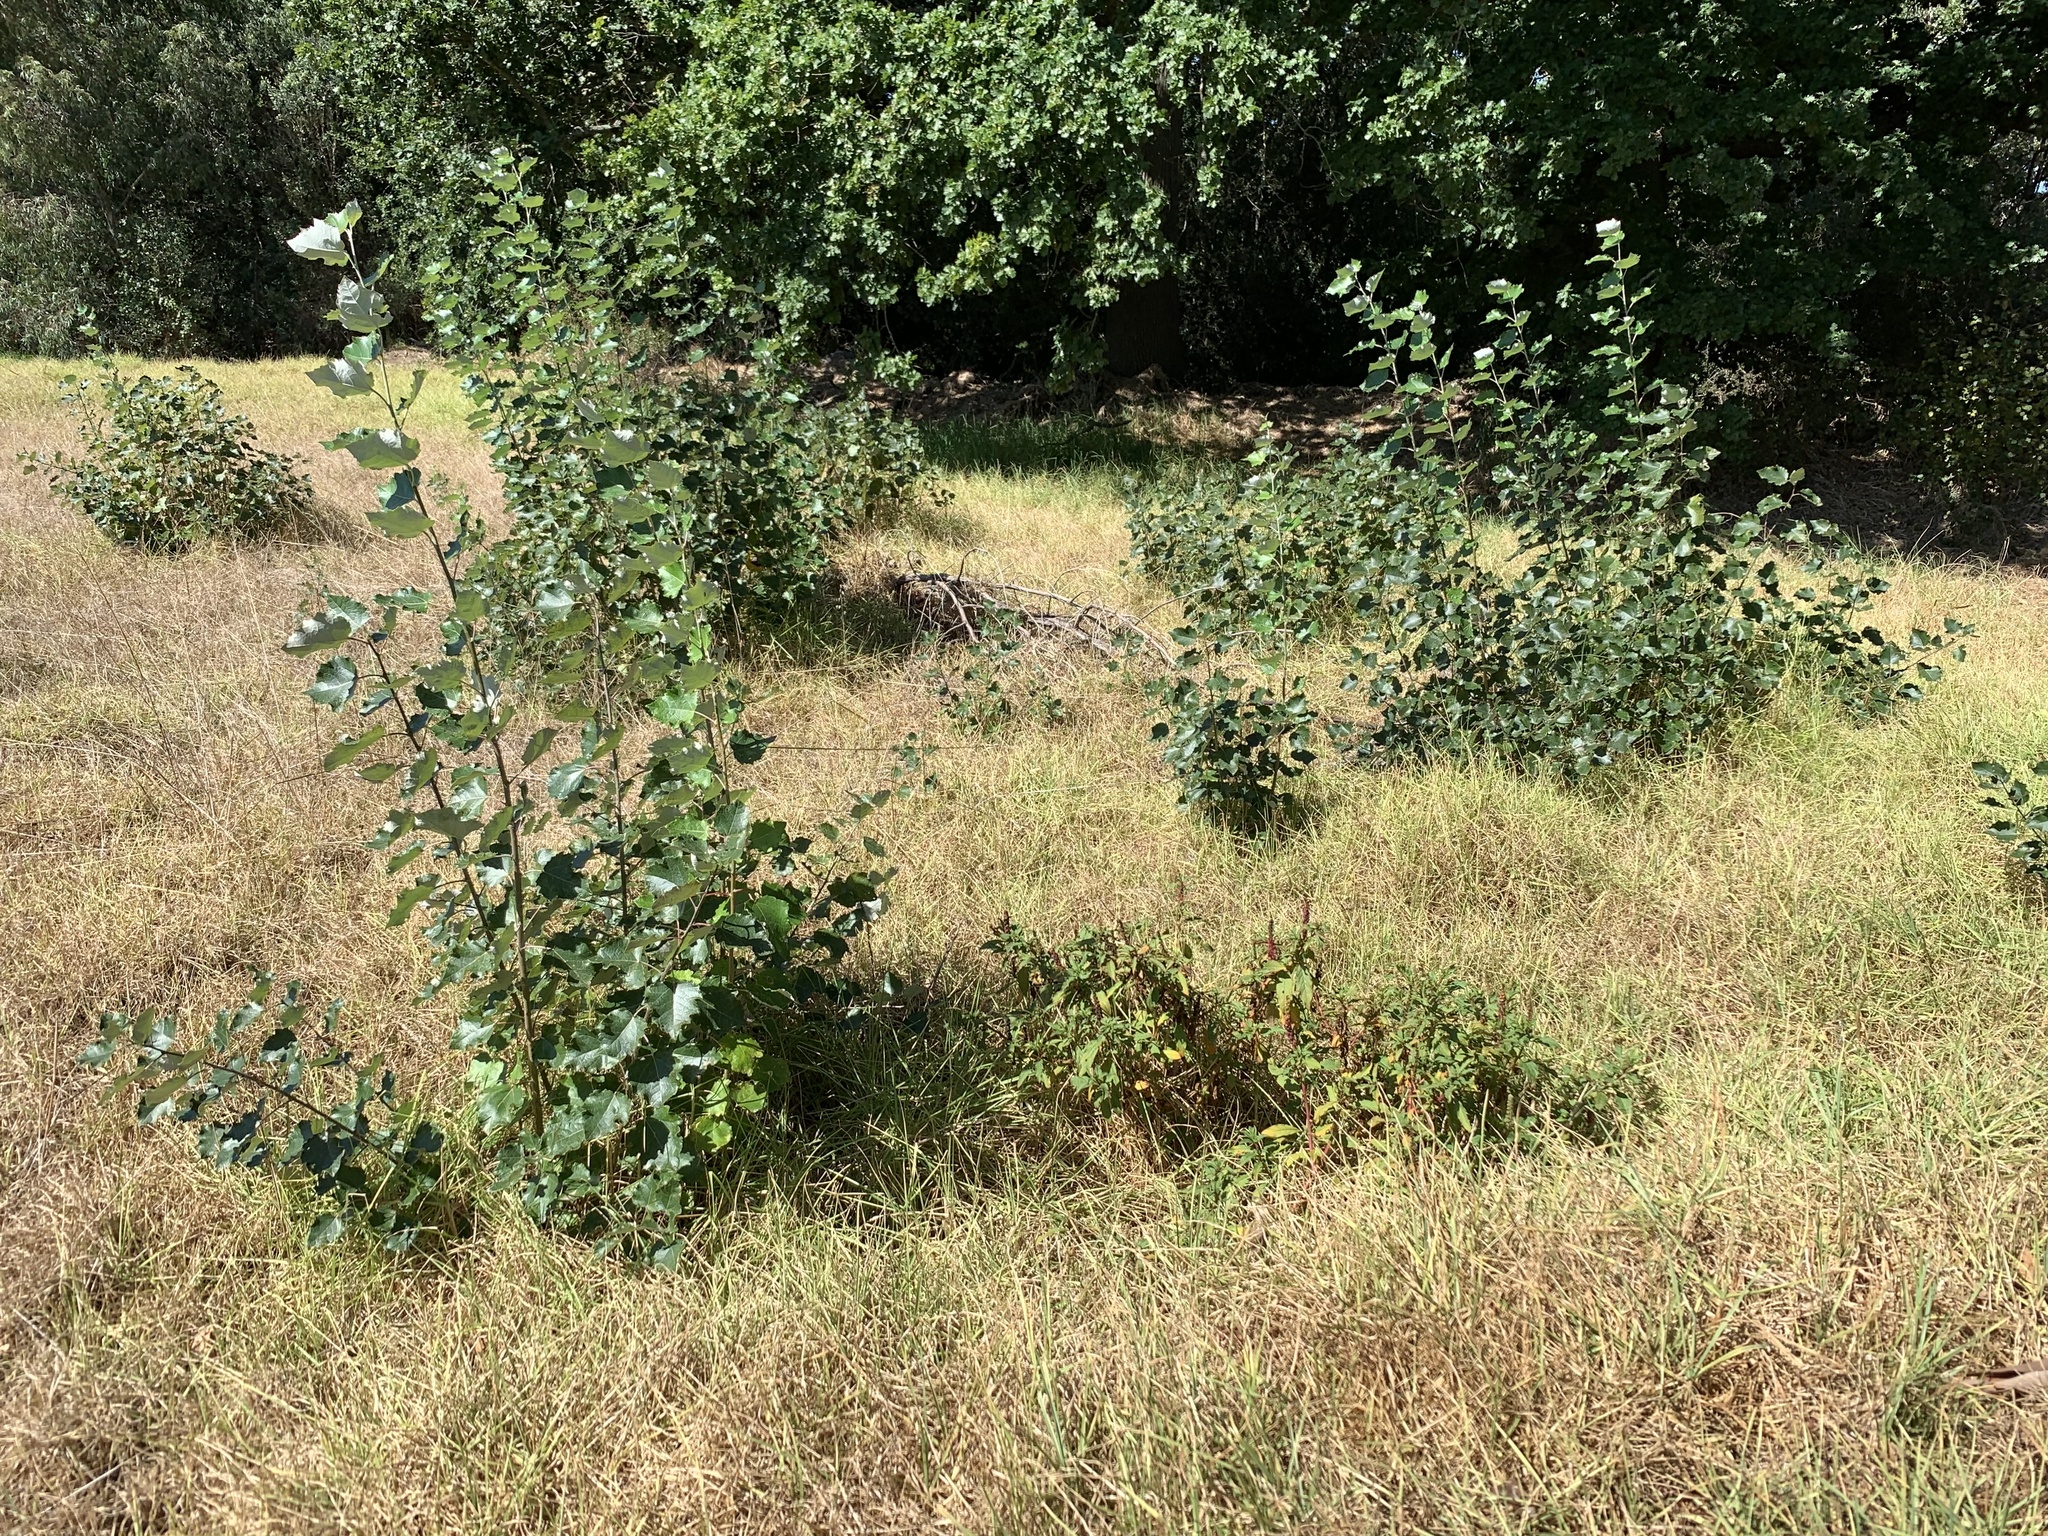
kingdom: Plantae
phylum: Tracheophyta
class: Magnoliopsida
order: Malpighiales
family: Salicaceae
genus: Populus
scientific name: Populus canescens
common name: Gray poplar
